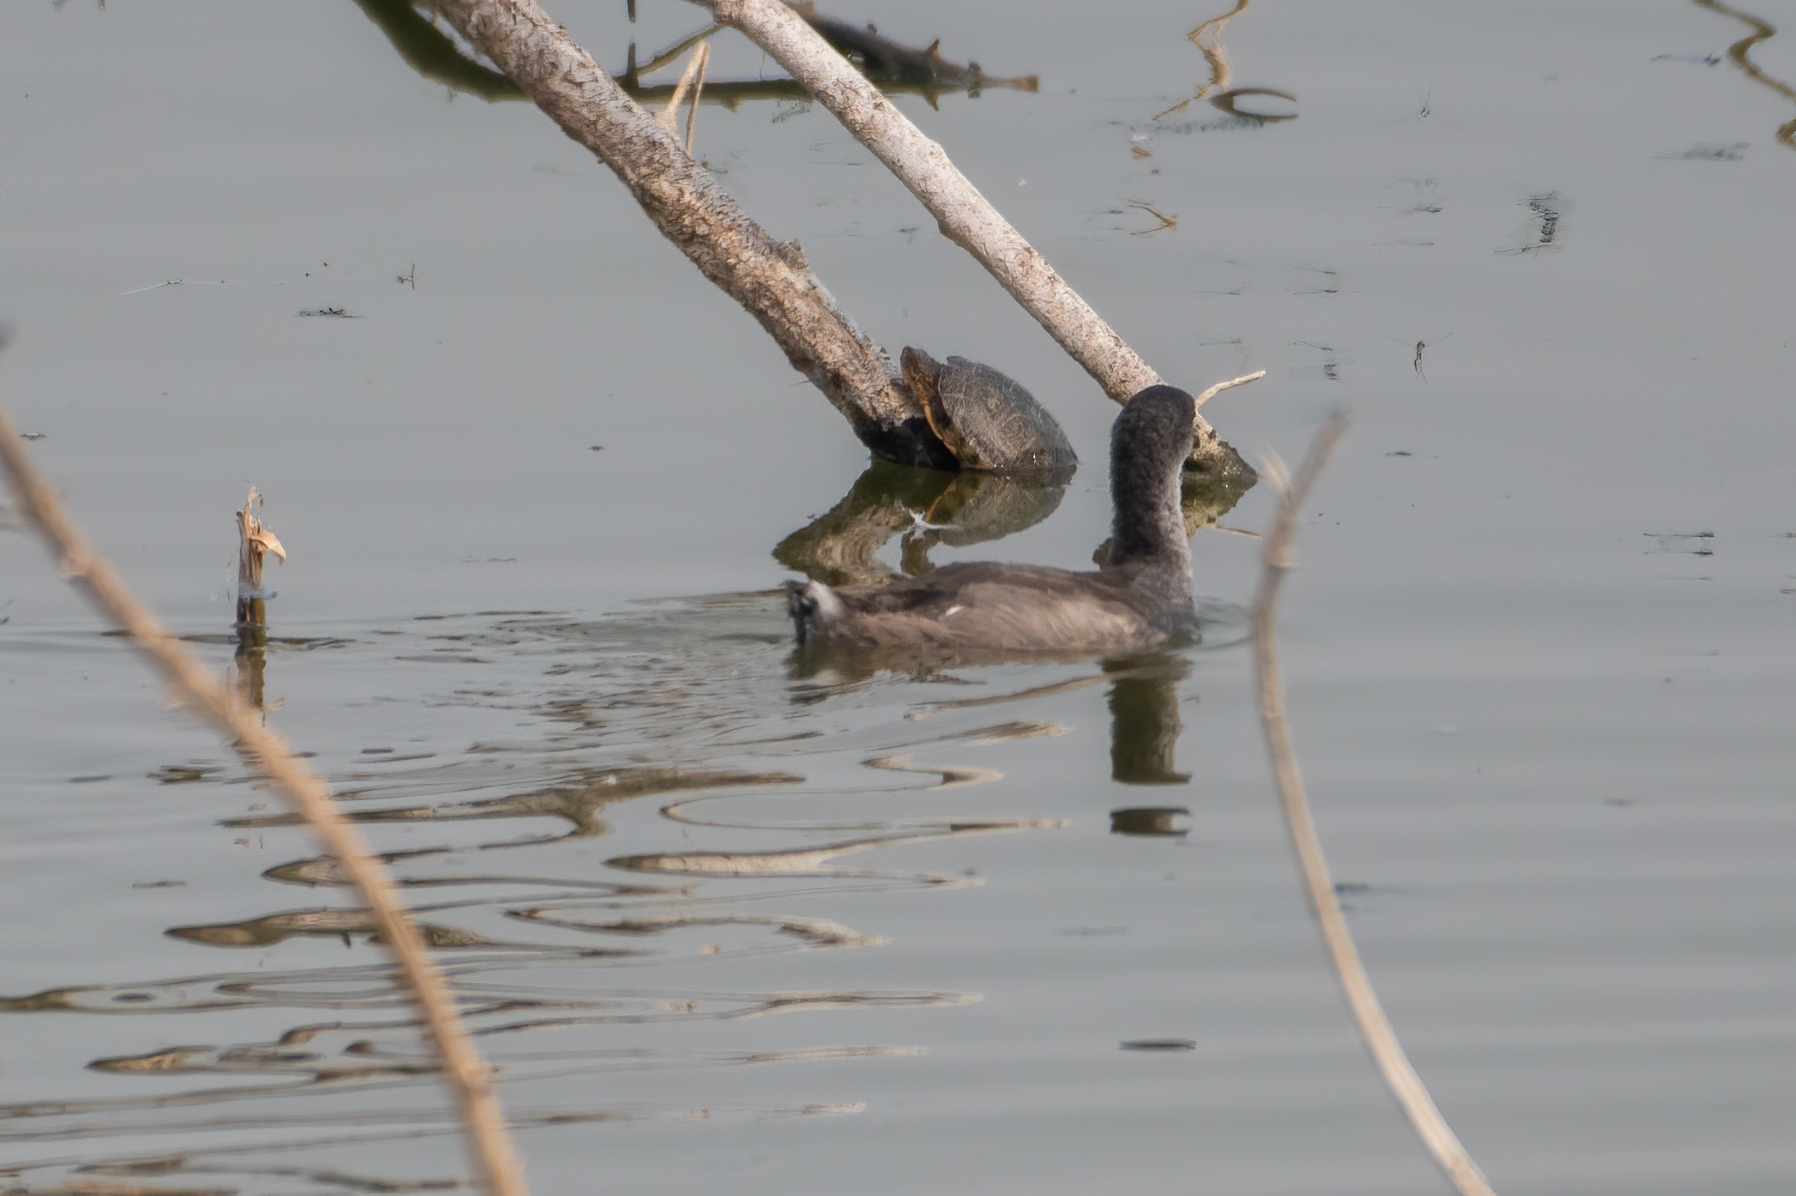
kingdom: Animalia
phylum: Chordata
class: Testudines
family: Emydidae
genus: Actinemys
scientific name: Actinemys marmorata
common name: Western pond turtle
